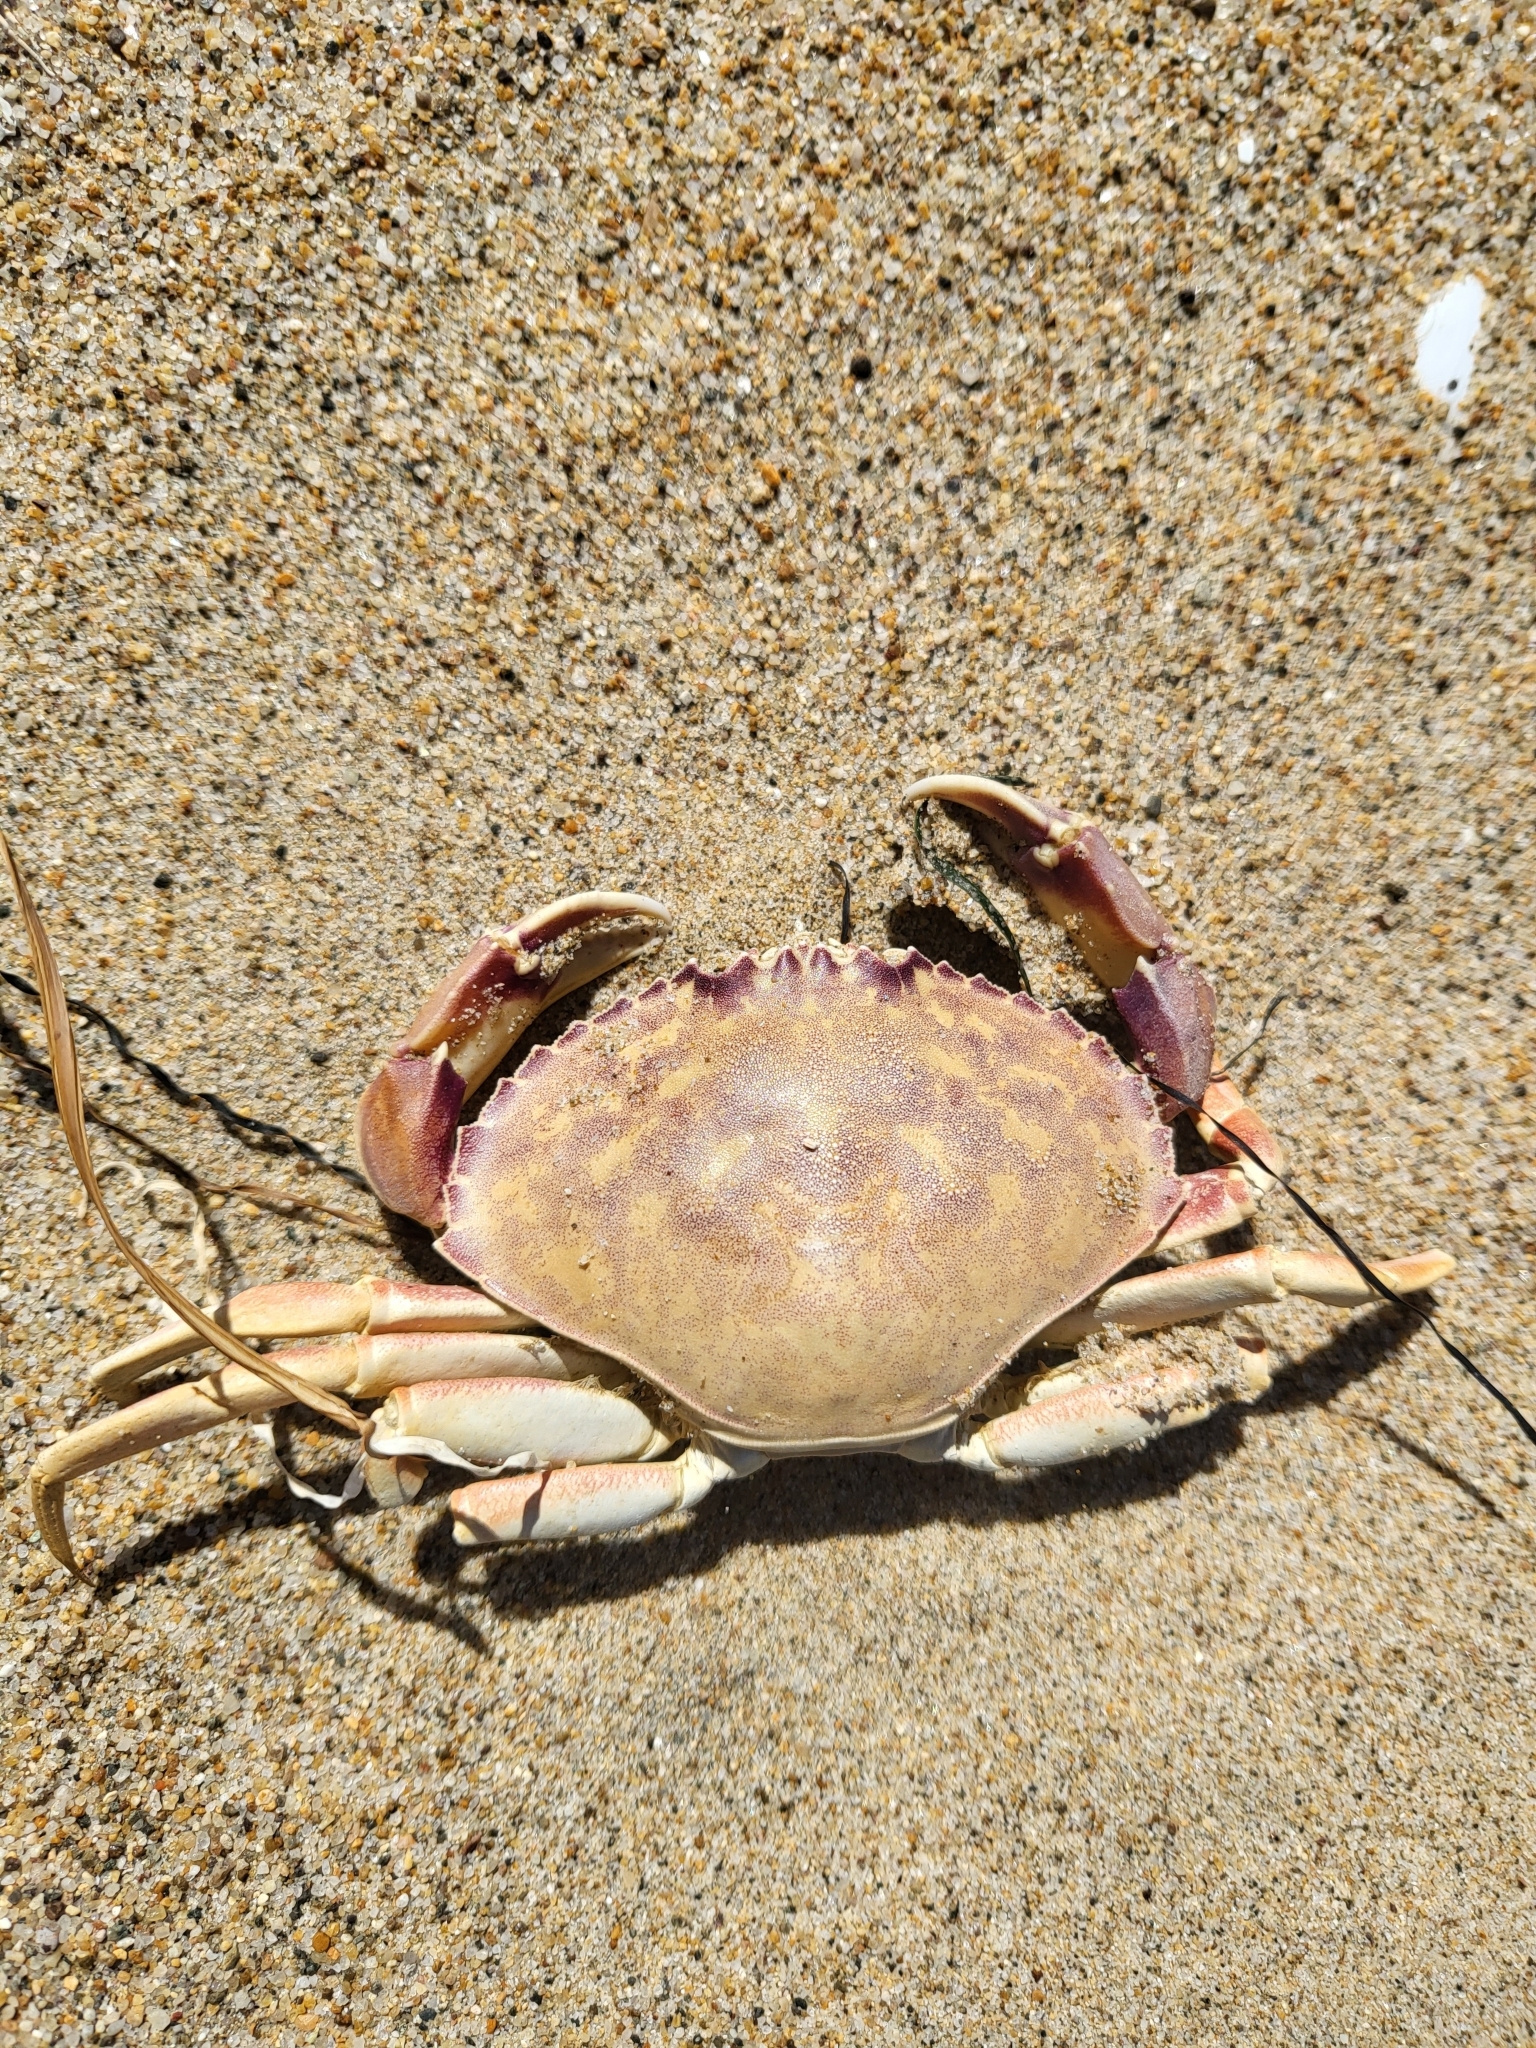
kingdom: Animalia
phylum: Arthropoda
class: Malacostraca
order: Decapoda
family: Cancridae
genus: Metacarcinus
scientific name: Metacarcinus gracilis
